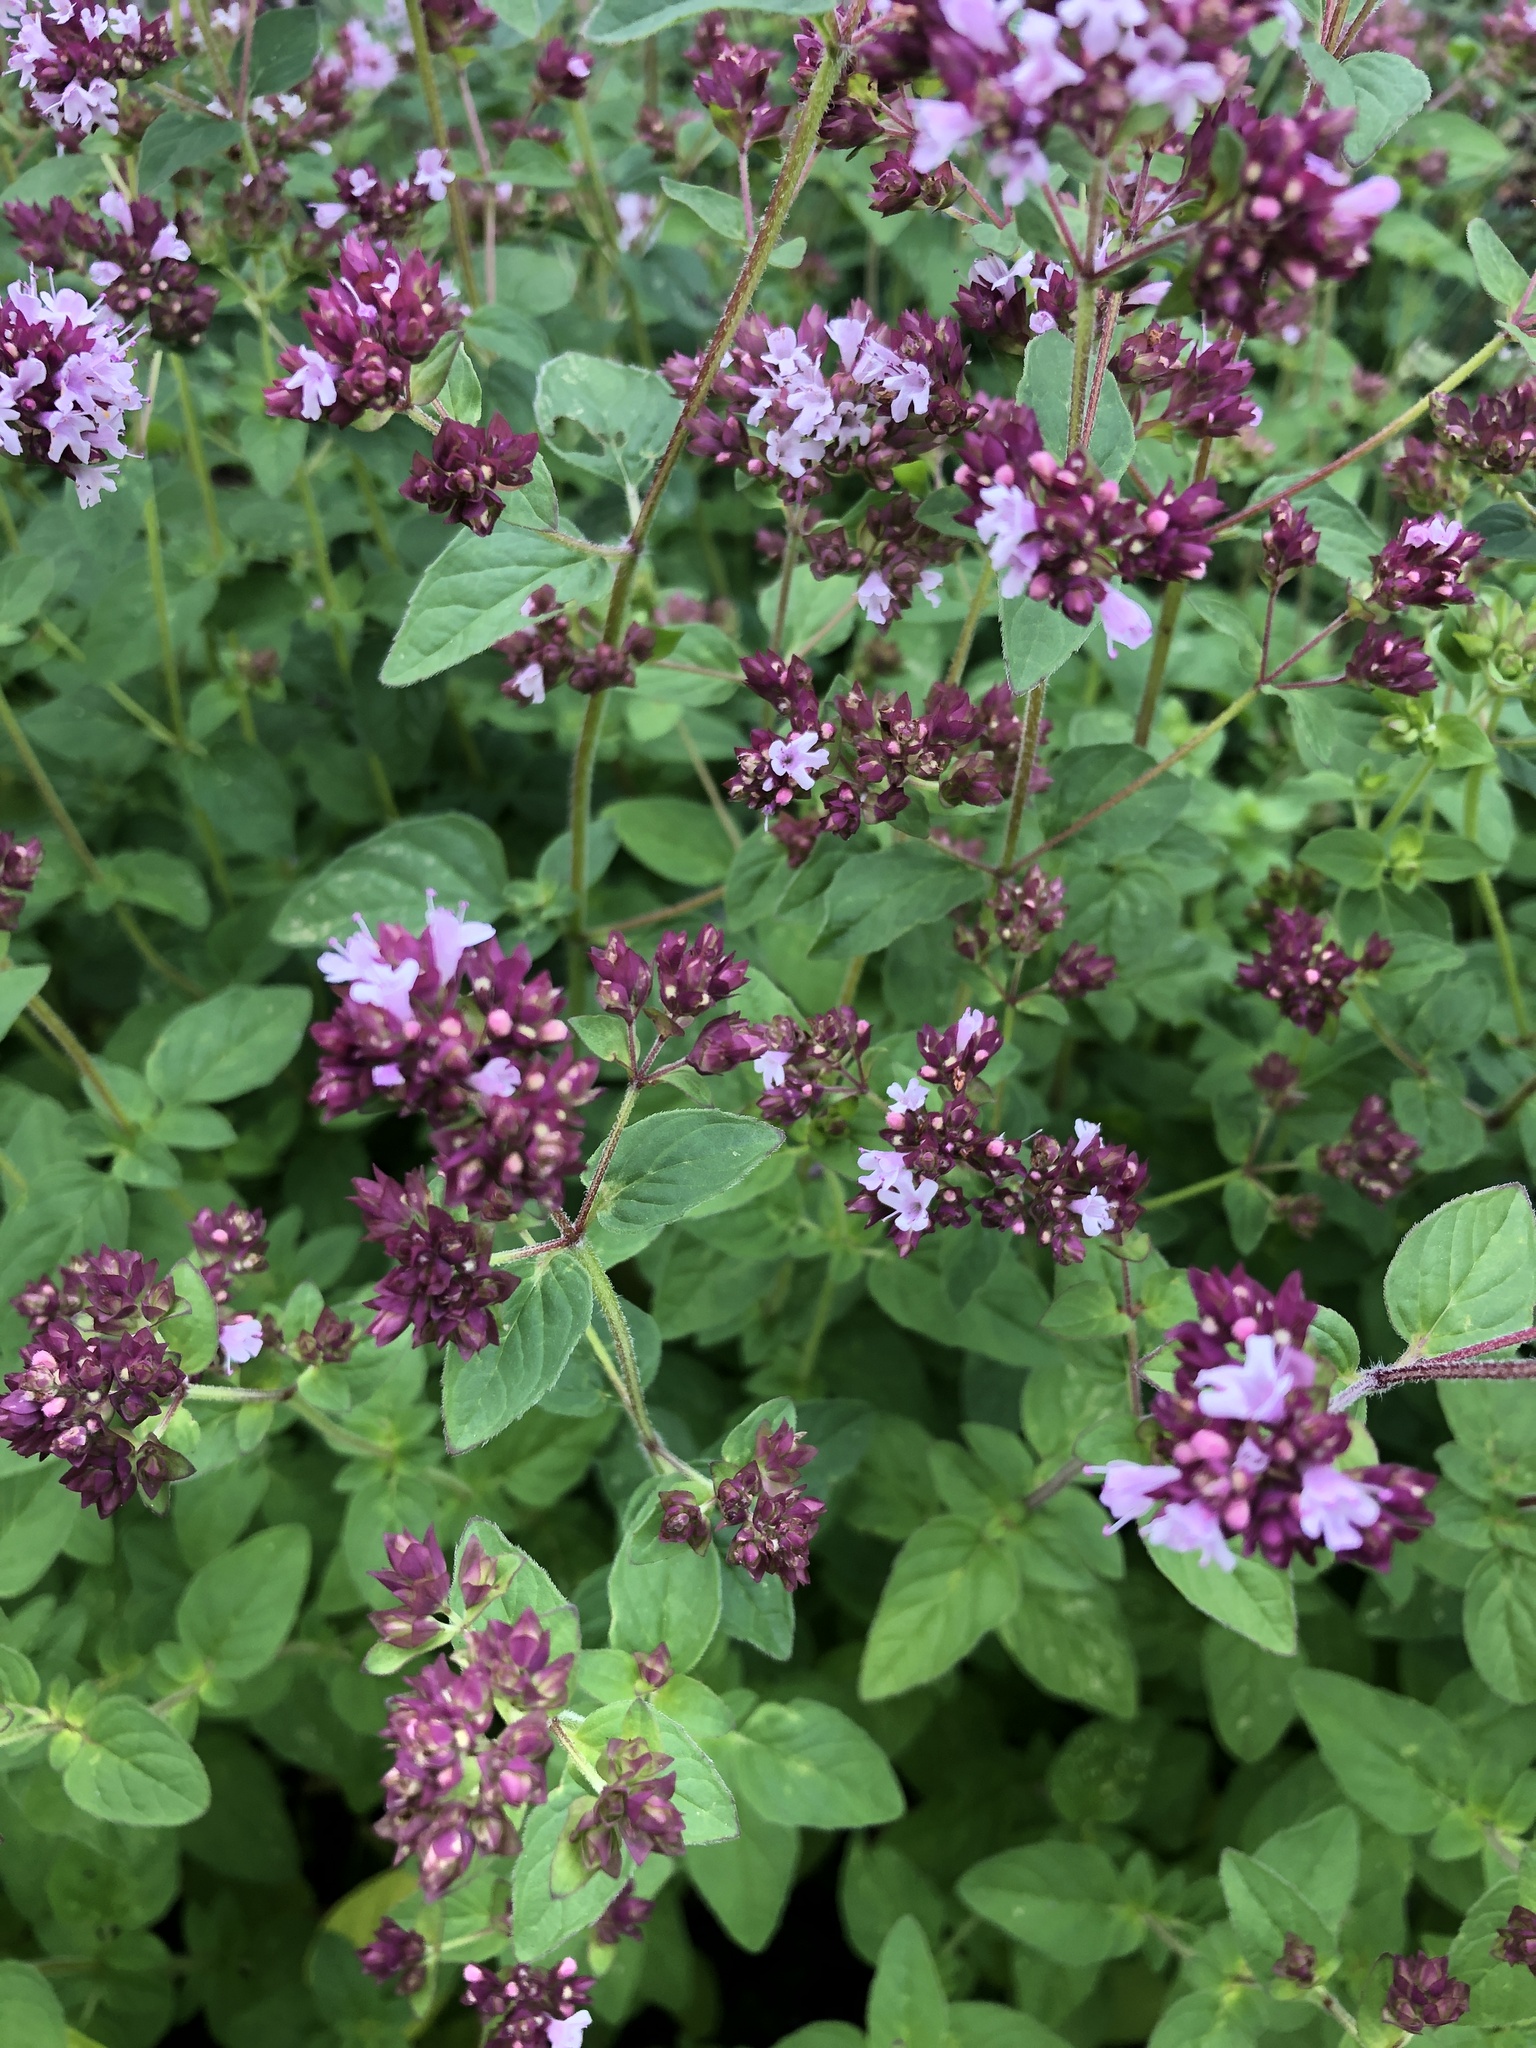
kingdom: Plantae
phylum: Tracheophyta
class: Magnoliopsida
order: Lamiales
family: Lamiaceae
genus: Origanum
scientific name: Origanum vulgare
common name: Wild marjoram
